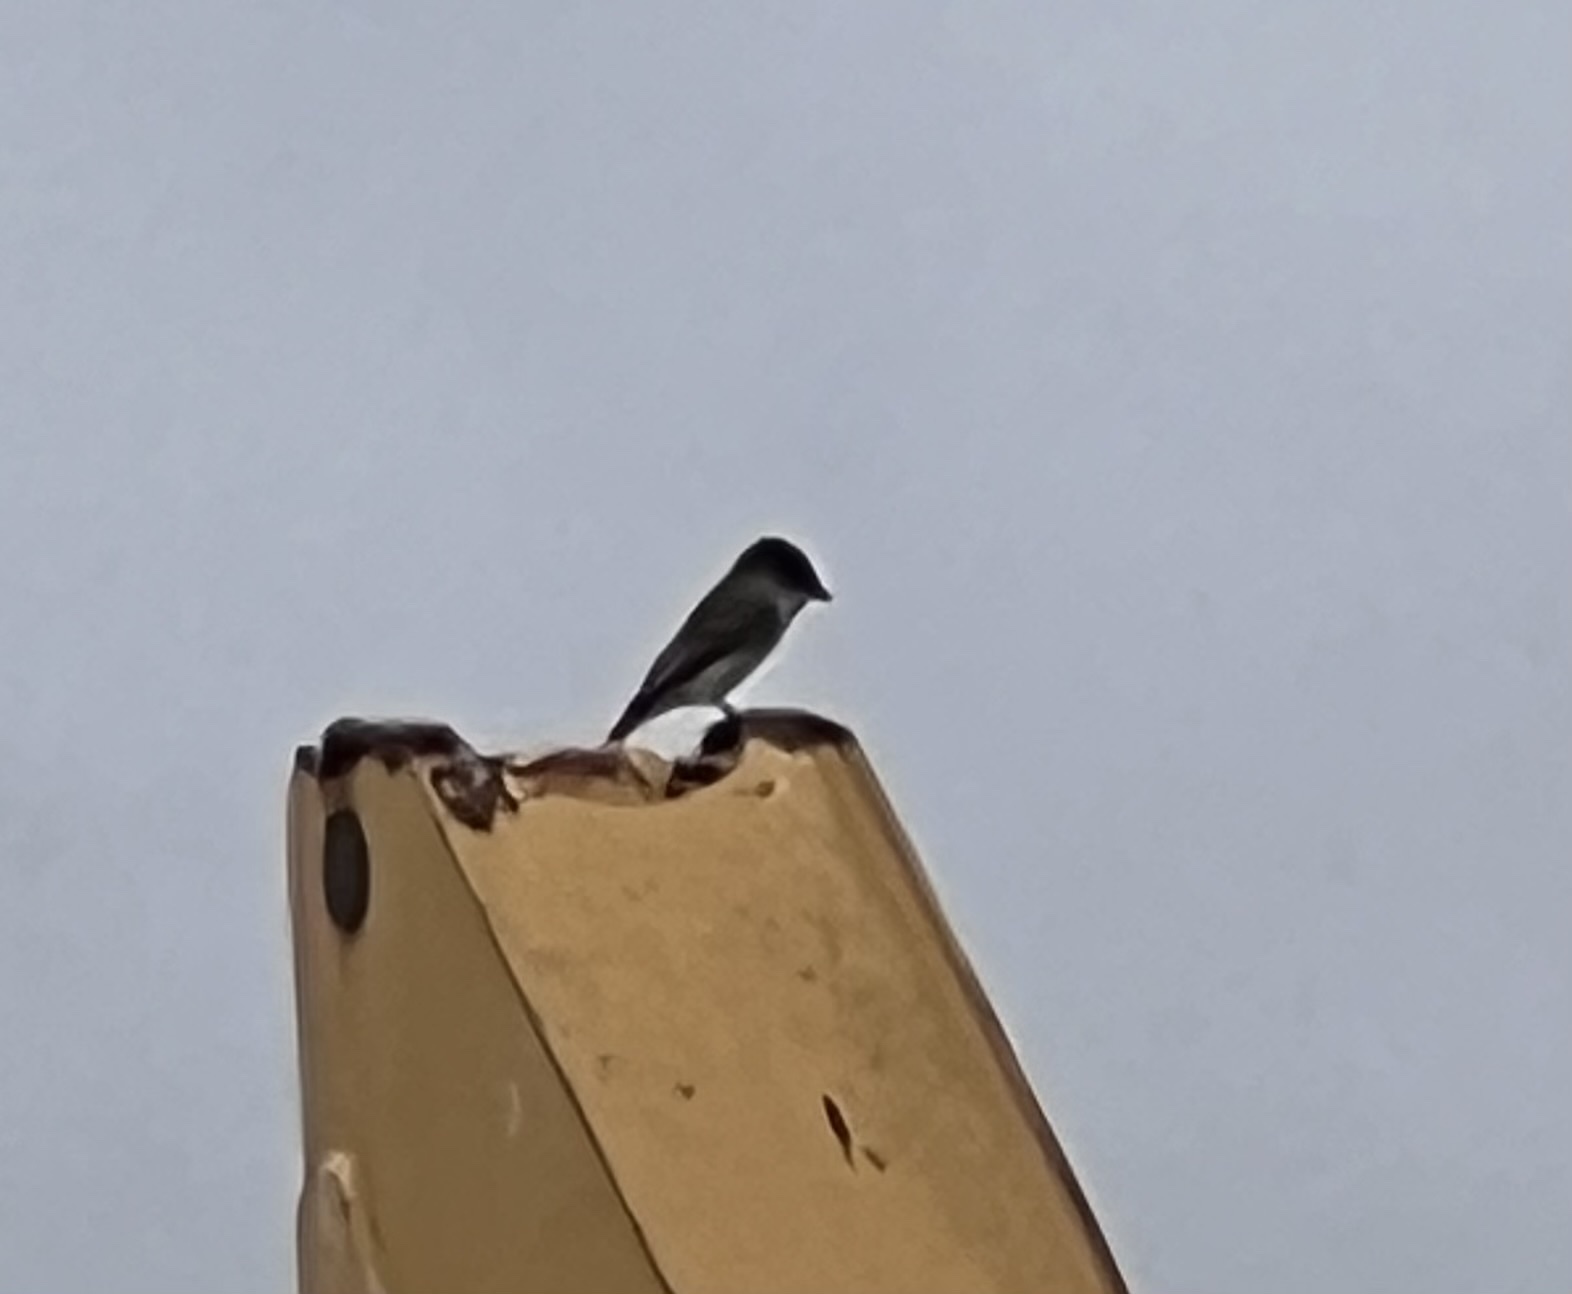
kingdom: Animalia
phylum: Chordata
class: Aves
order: Passeriformes
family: Tyrannidae
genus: Sayornis
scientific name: Sayornis phoebe
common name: Eastern phoebe
